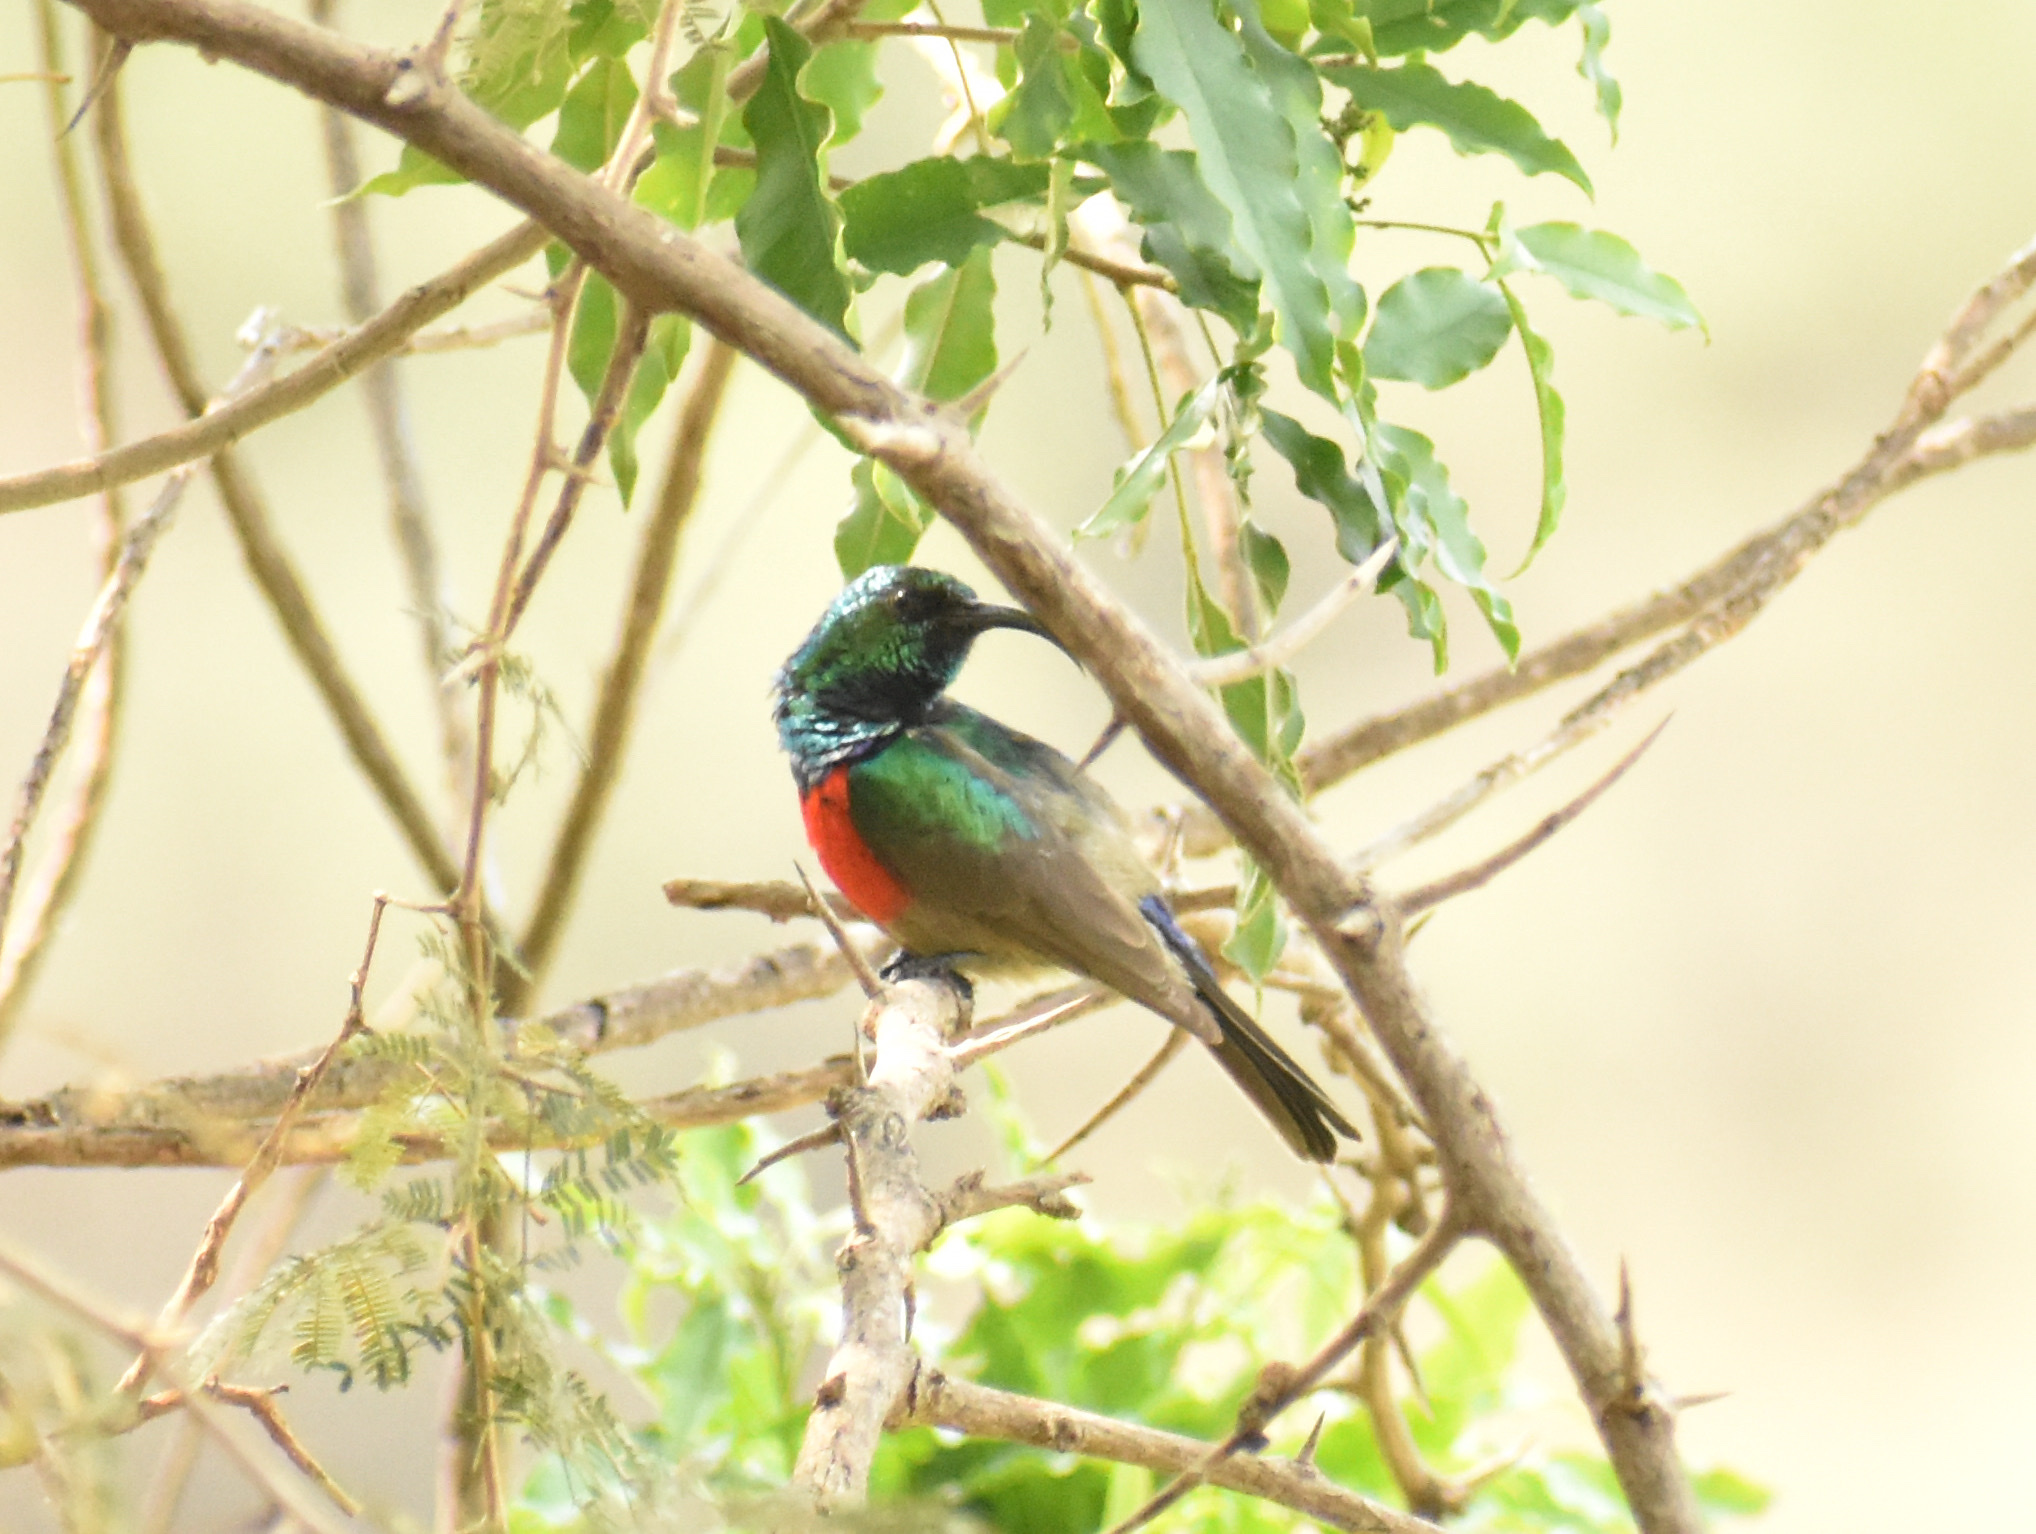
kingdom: Animalia
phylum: Chordata
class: Aves
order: Passeriformes
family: Nectariniidae
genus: Cinnyris
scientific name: Cinnyris afer
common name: Greater double-collared sunbird
